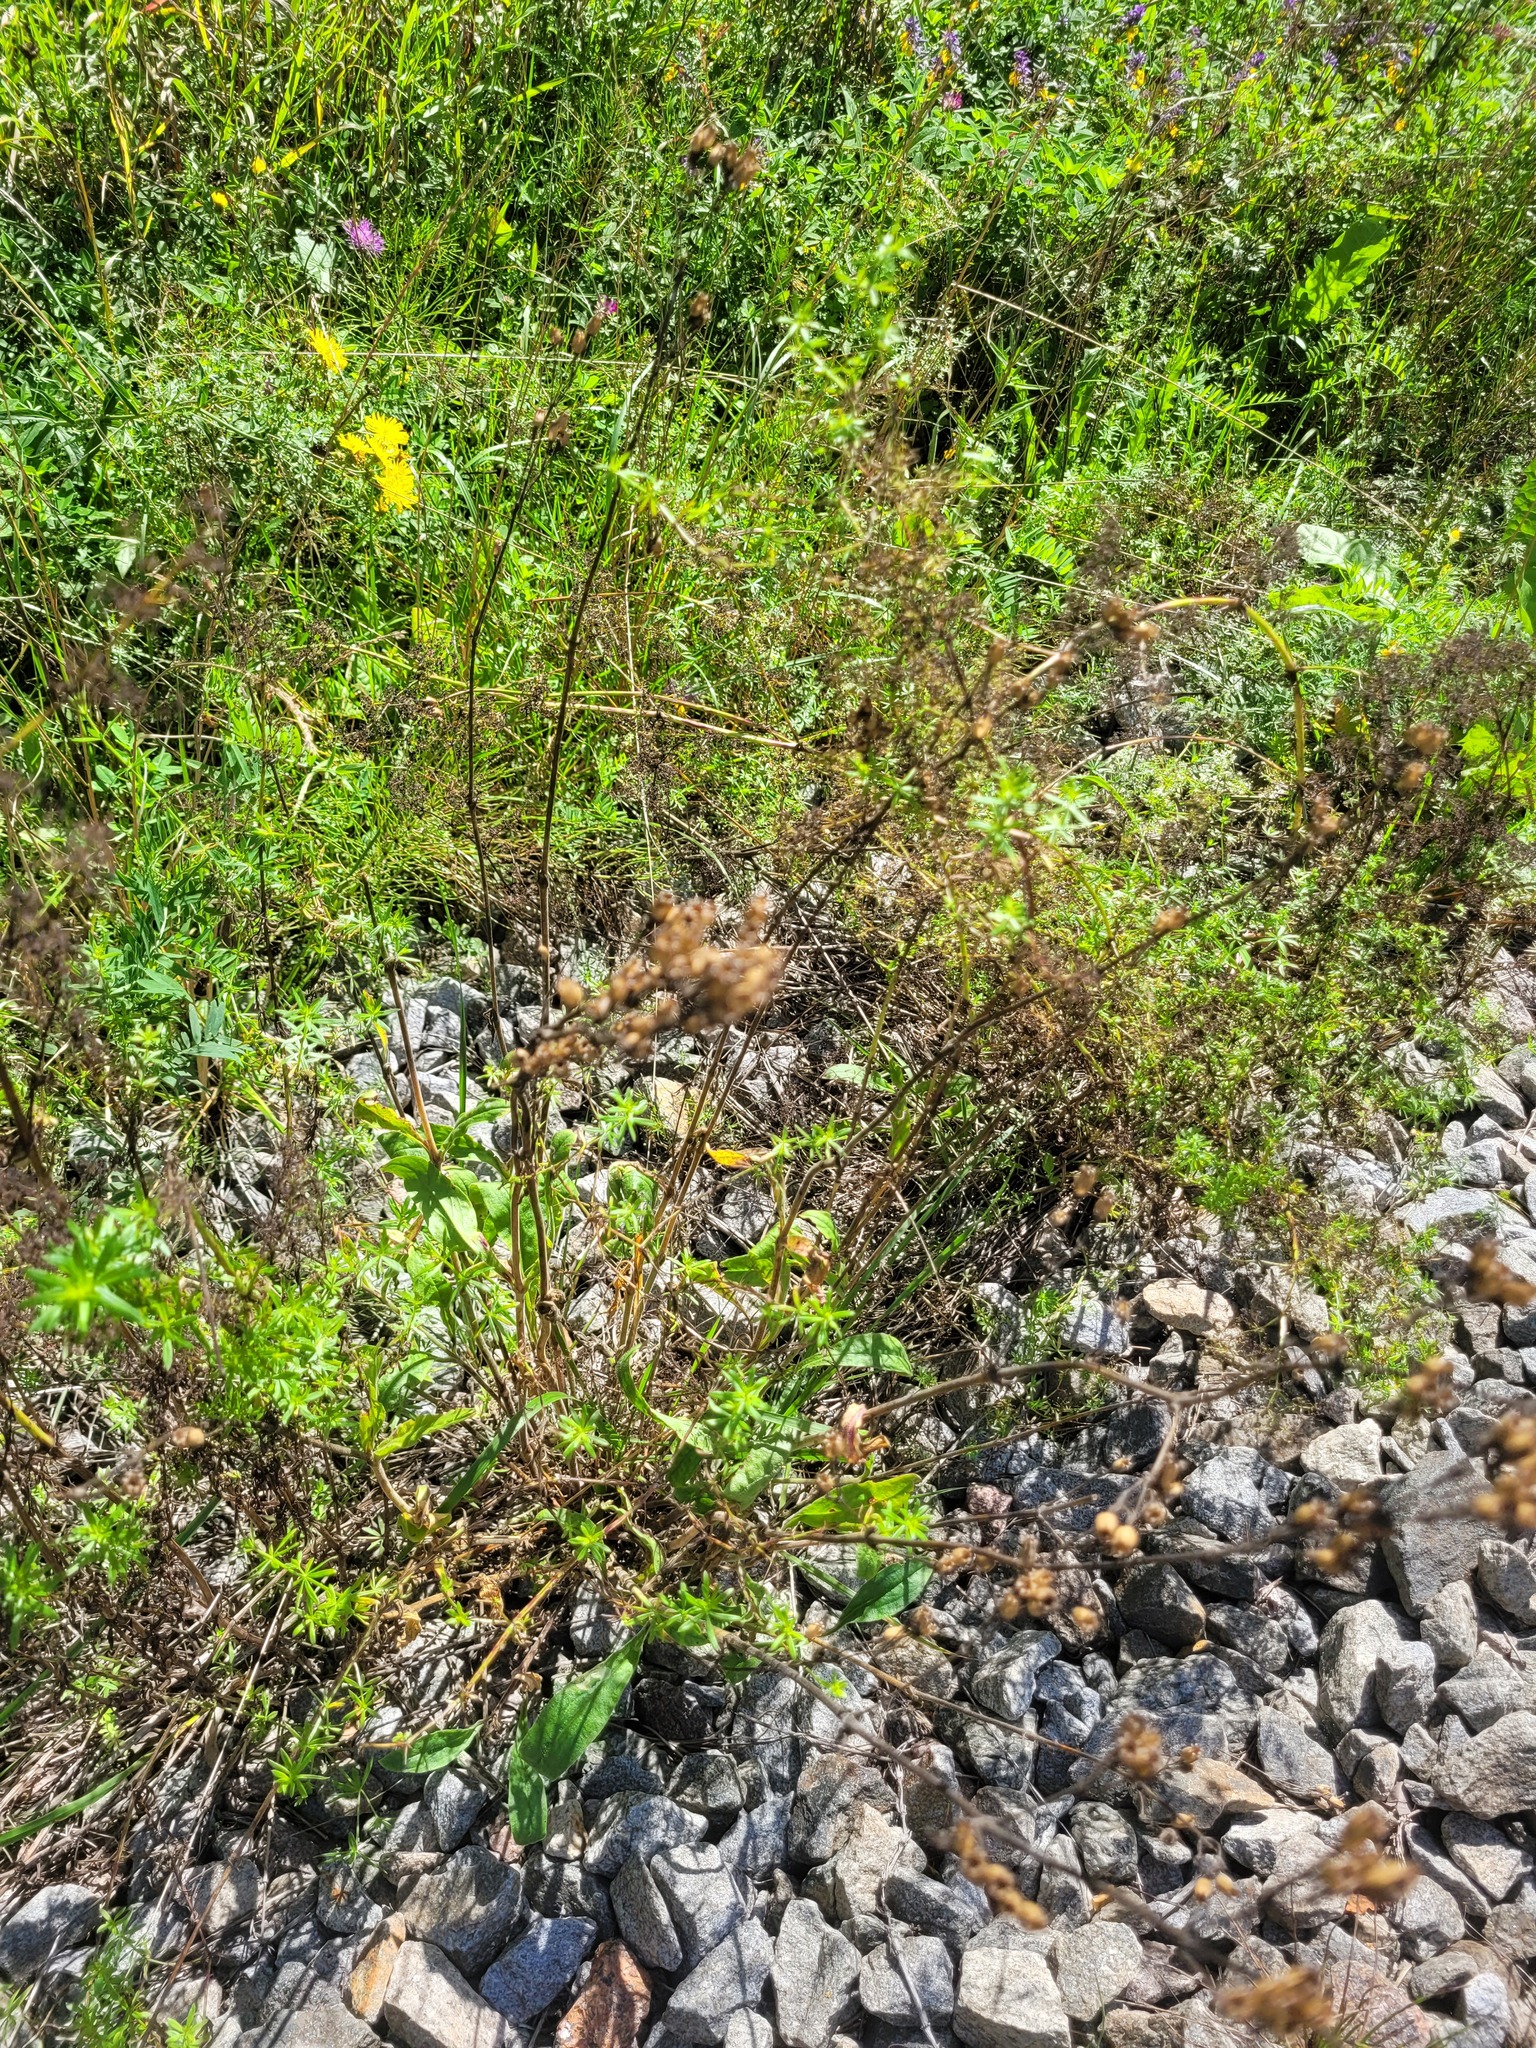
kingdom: Plantae
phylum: Tracheophyta
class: Magnoliopsida
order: Caryophyllales
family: Caryophyllaceae
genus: Silene
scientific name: Silene nutans
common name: Nottingham catchfly
